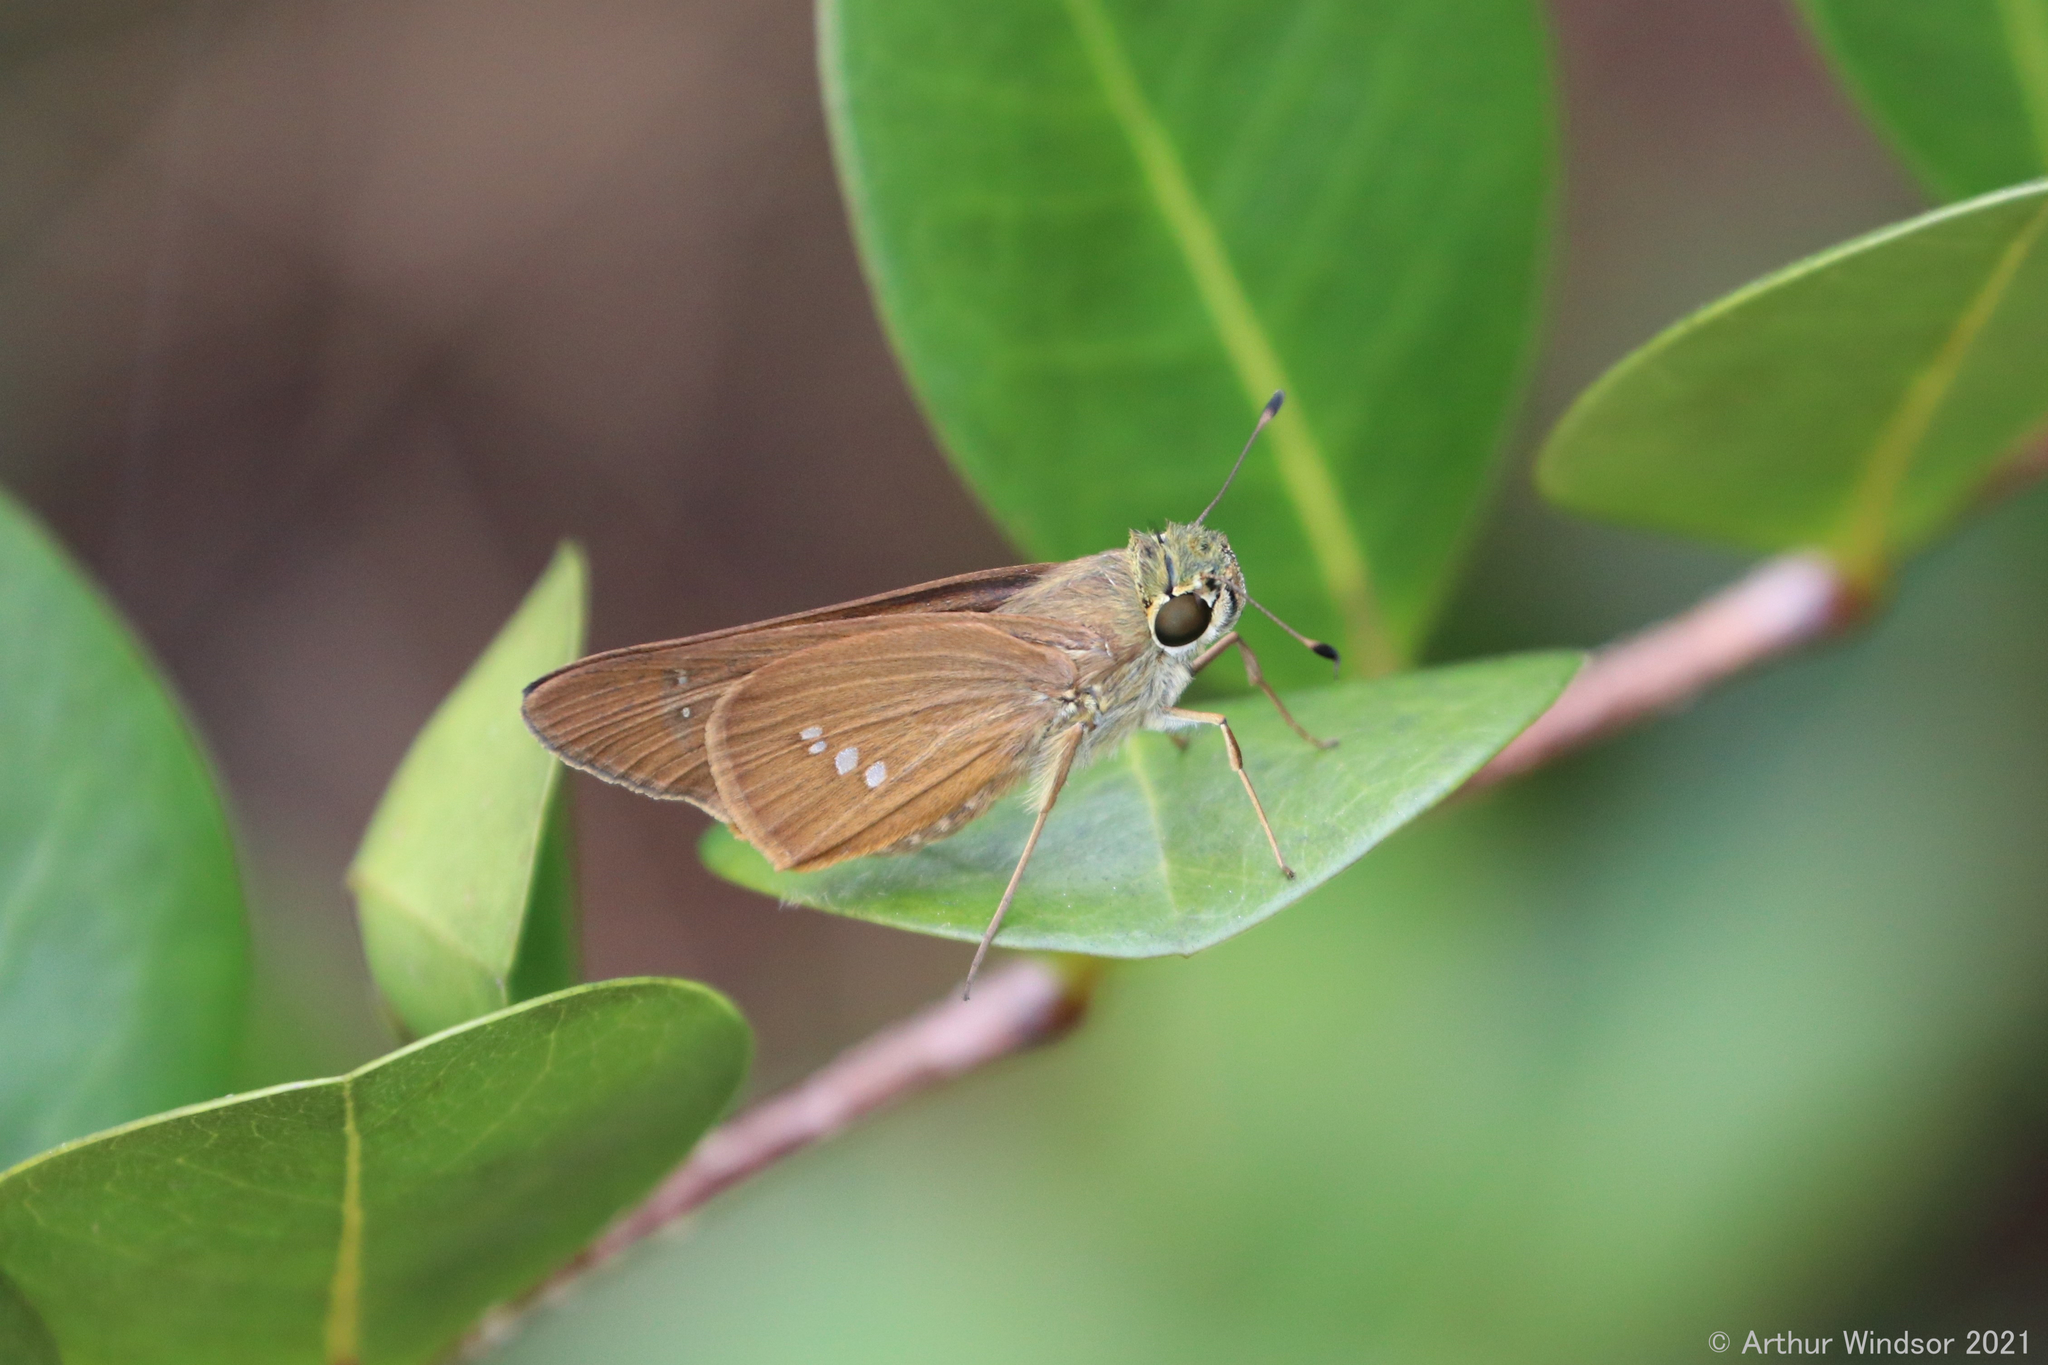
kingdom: Animalia
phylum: Arthropoda
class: Insecta
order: Lepidoptera
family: Hesperiidae
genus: Calpodes
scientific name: Calpodes ethlius
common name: Brazilian skipper
